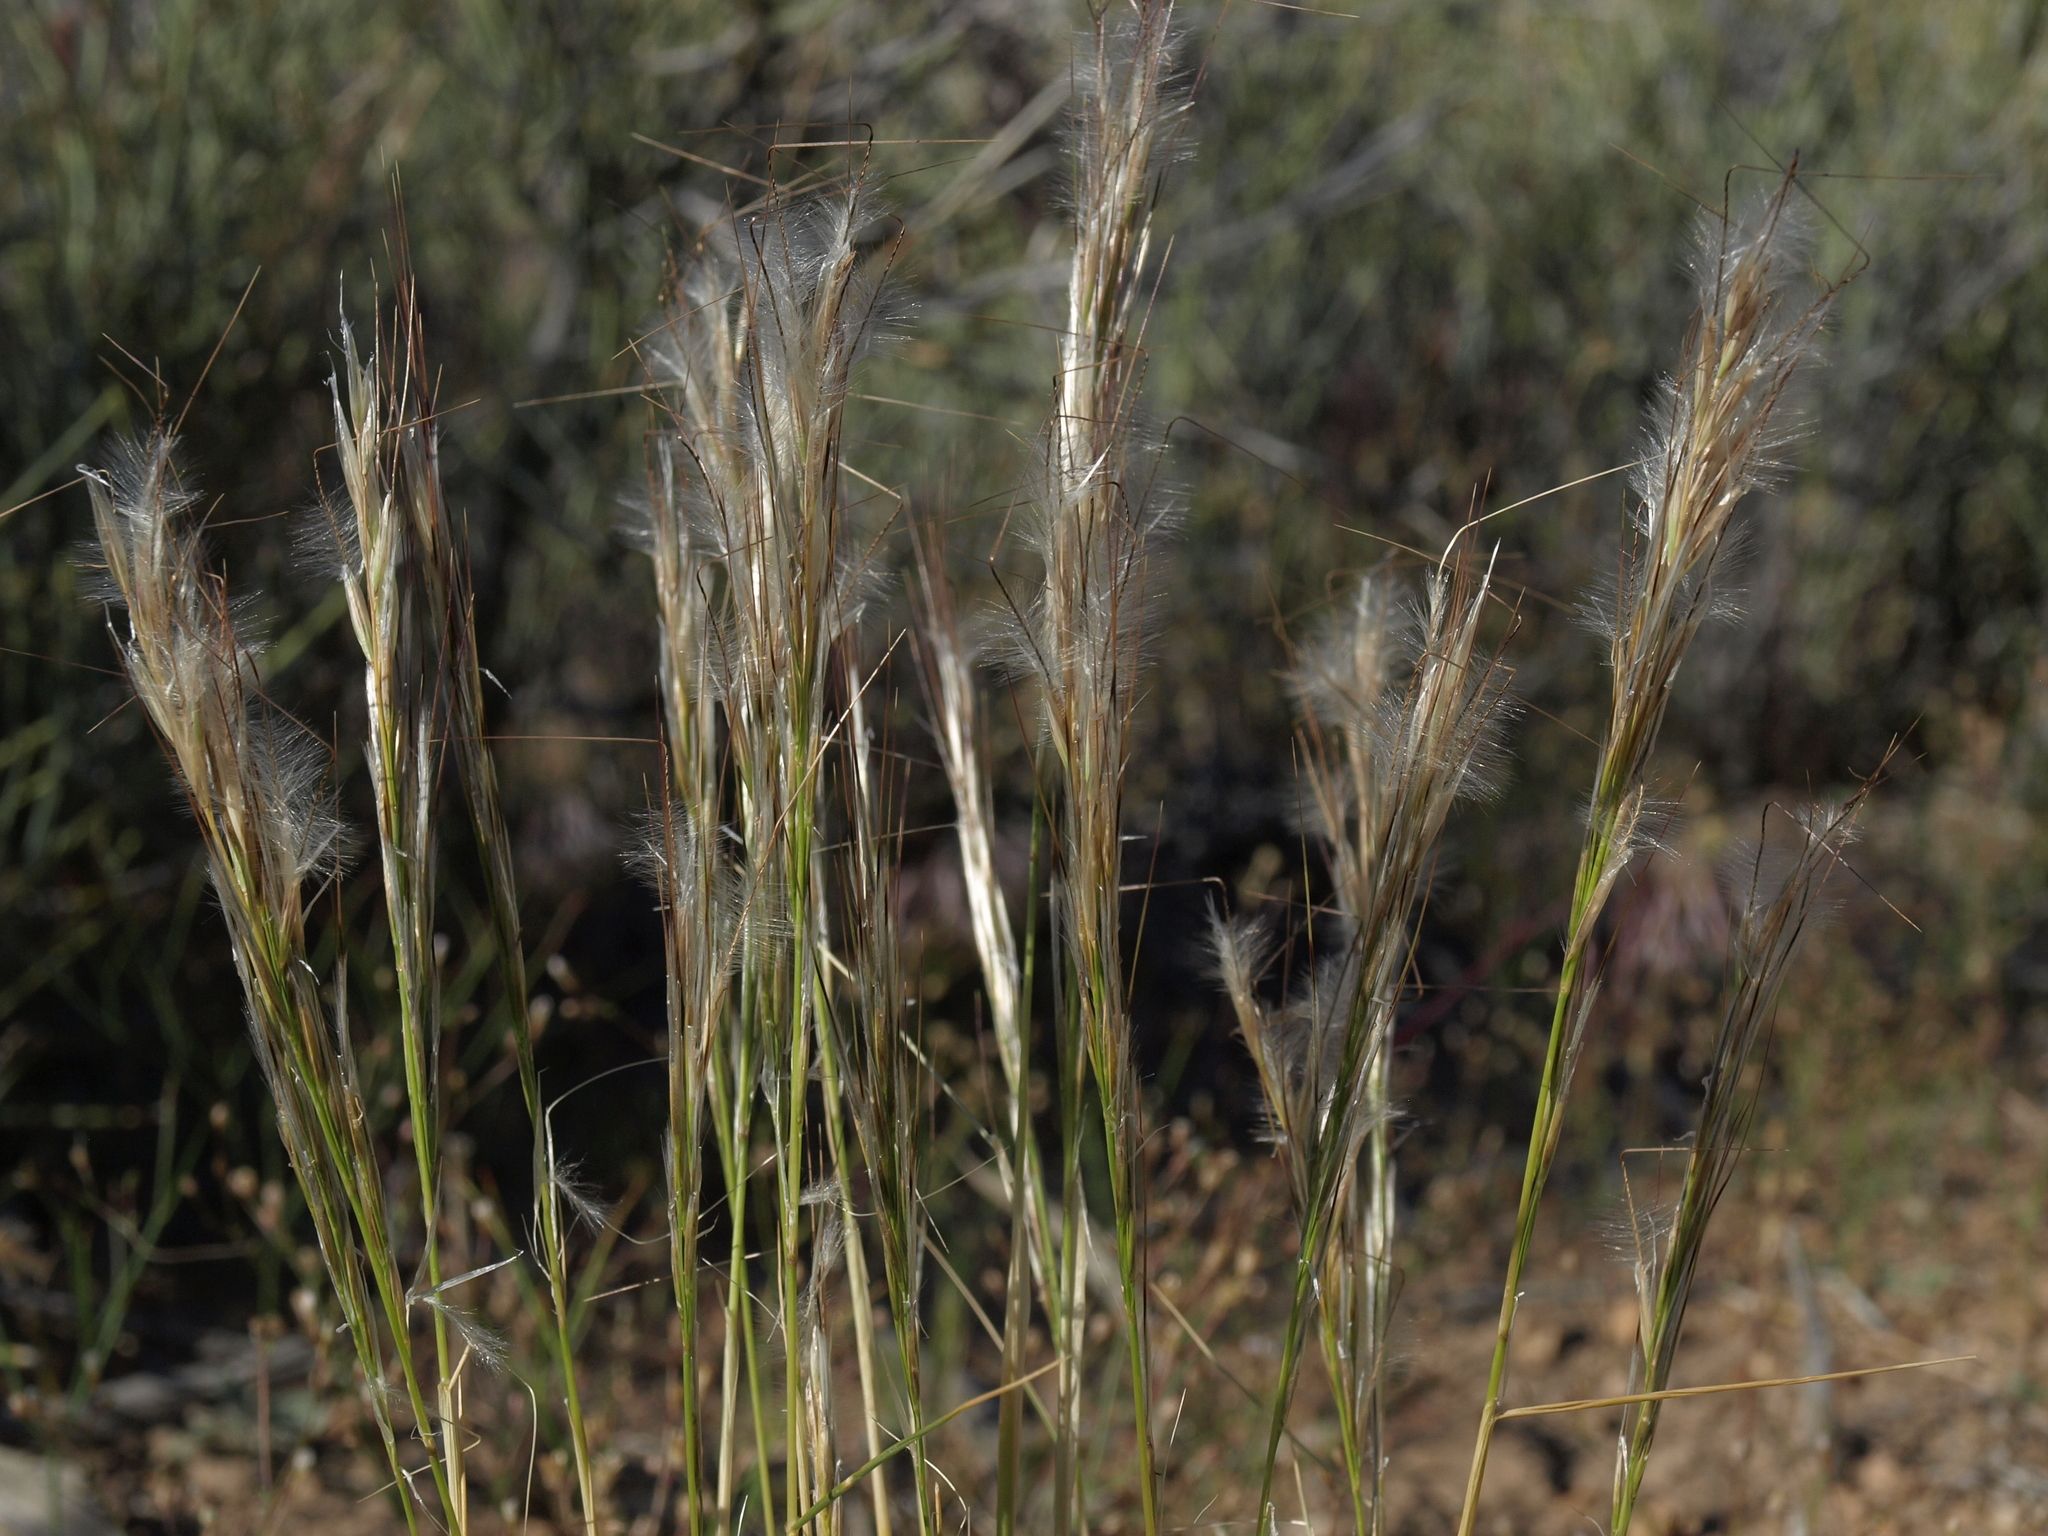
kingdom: Plantae
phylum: Tracheophyta
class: Liliopsida
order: Poales
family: Poaceae
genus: Pappostipa
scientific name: Pappostipa speciosa
